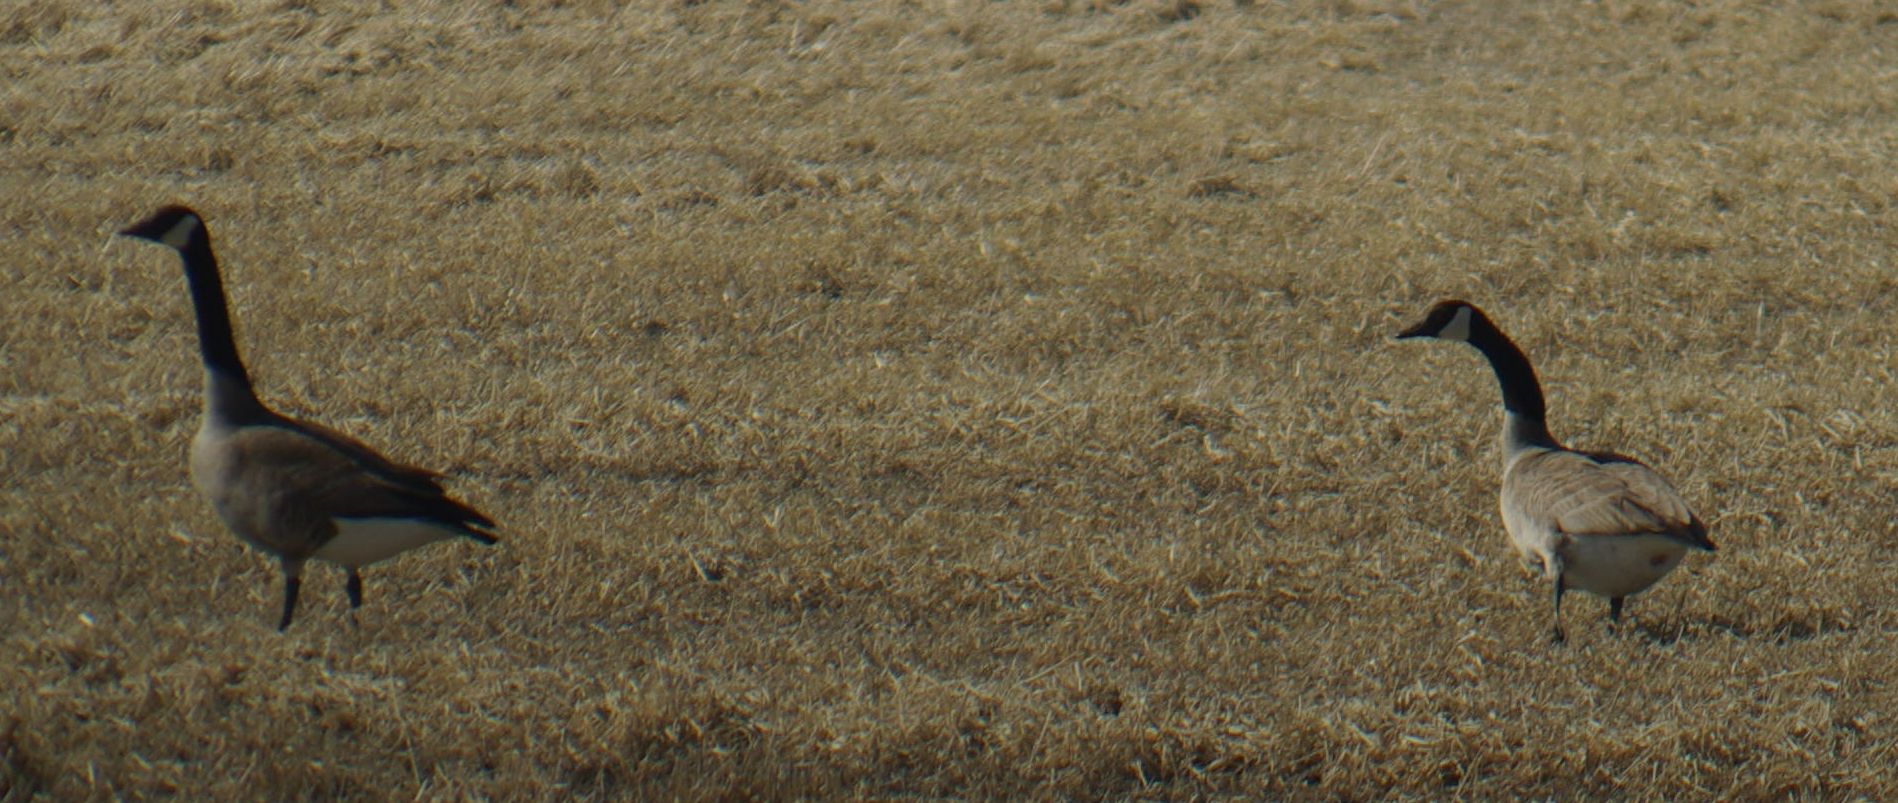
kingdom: Animalia
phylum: Chordata
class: Aves
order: Anseriformes
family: Anatidae
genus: Branta
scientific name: Branta canadensis
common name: Canada goose
